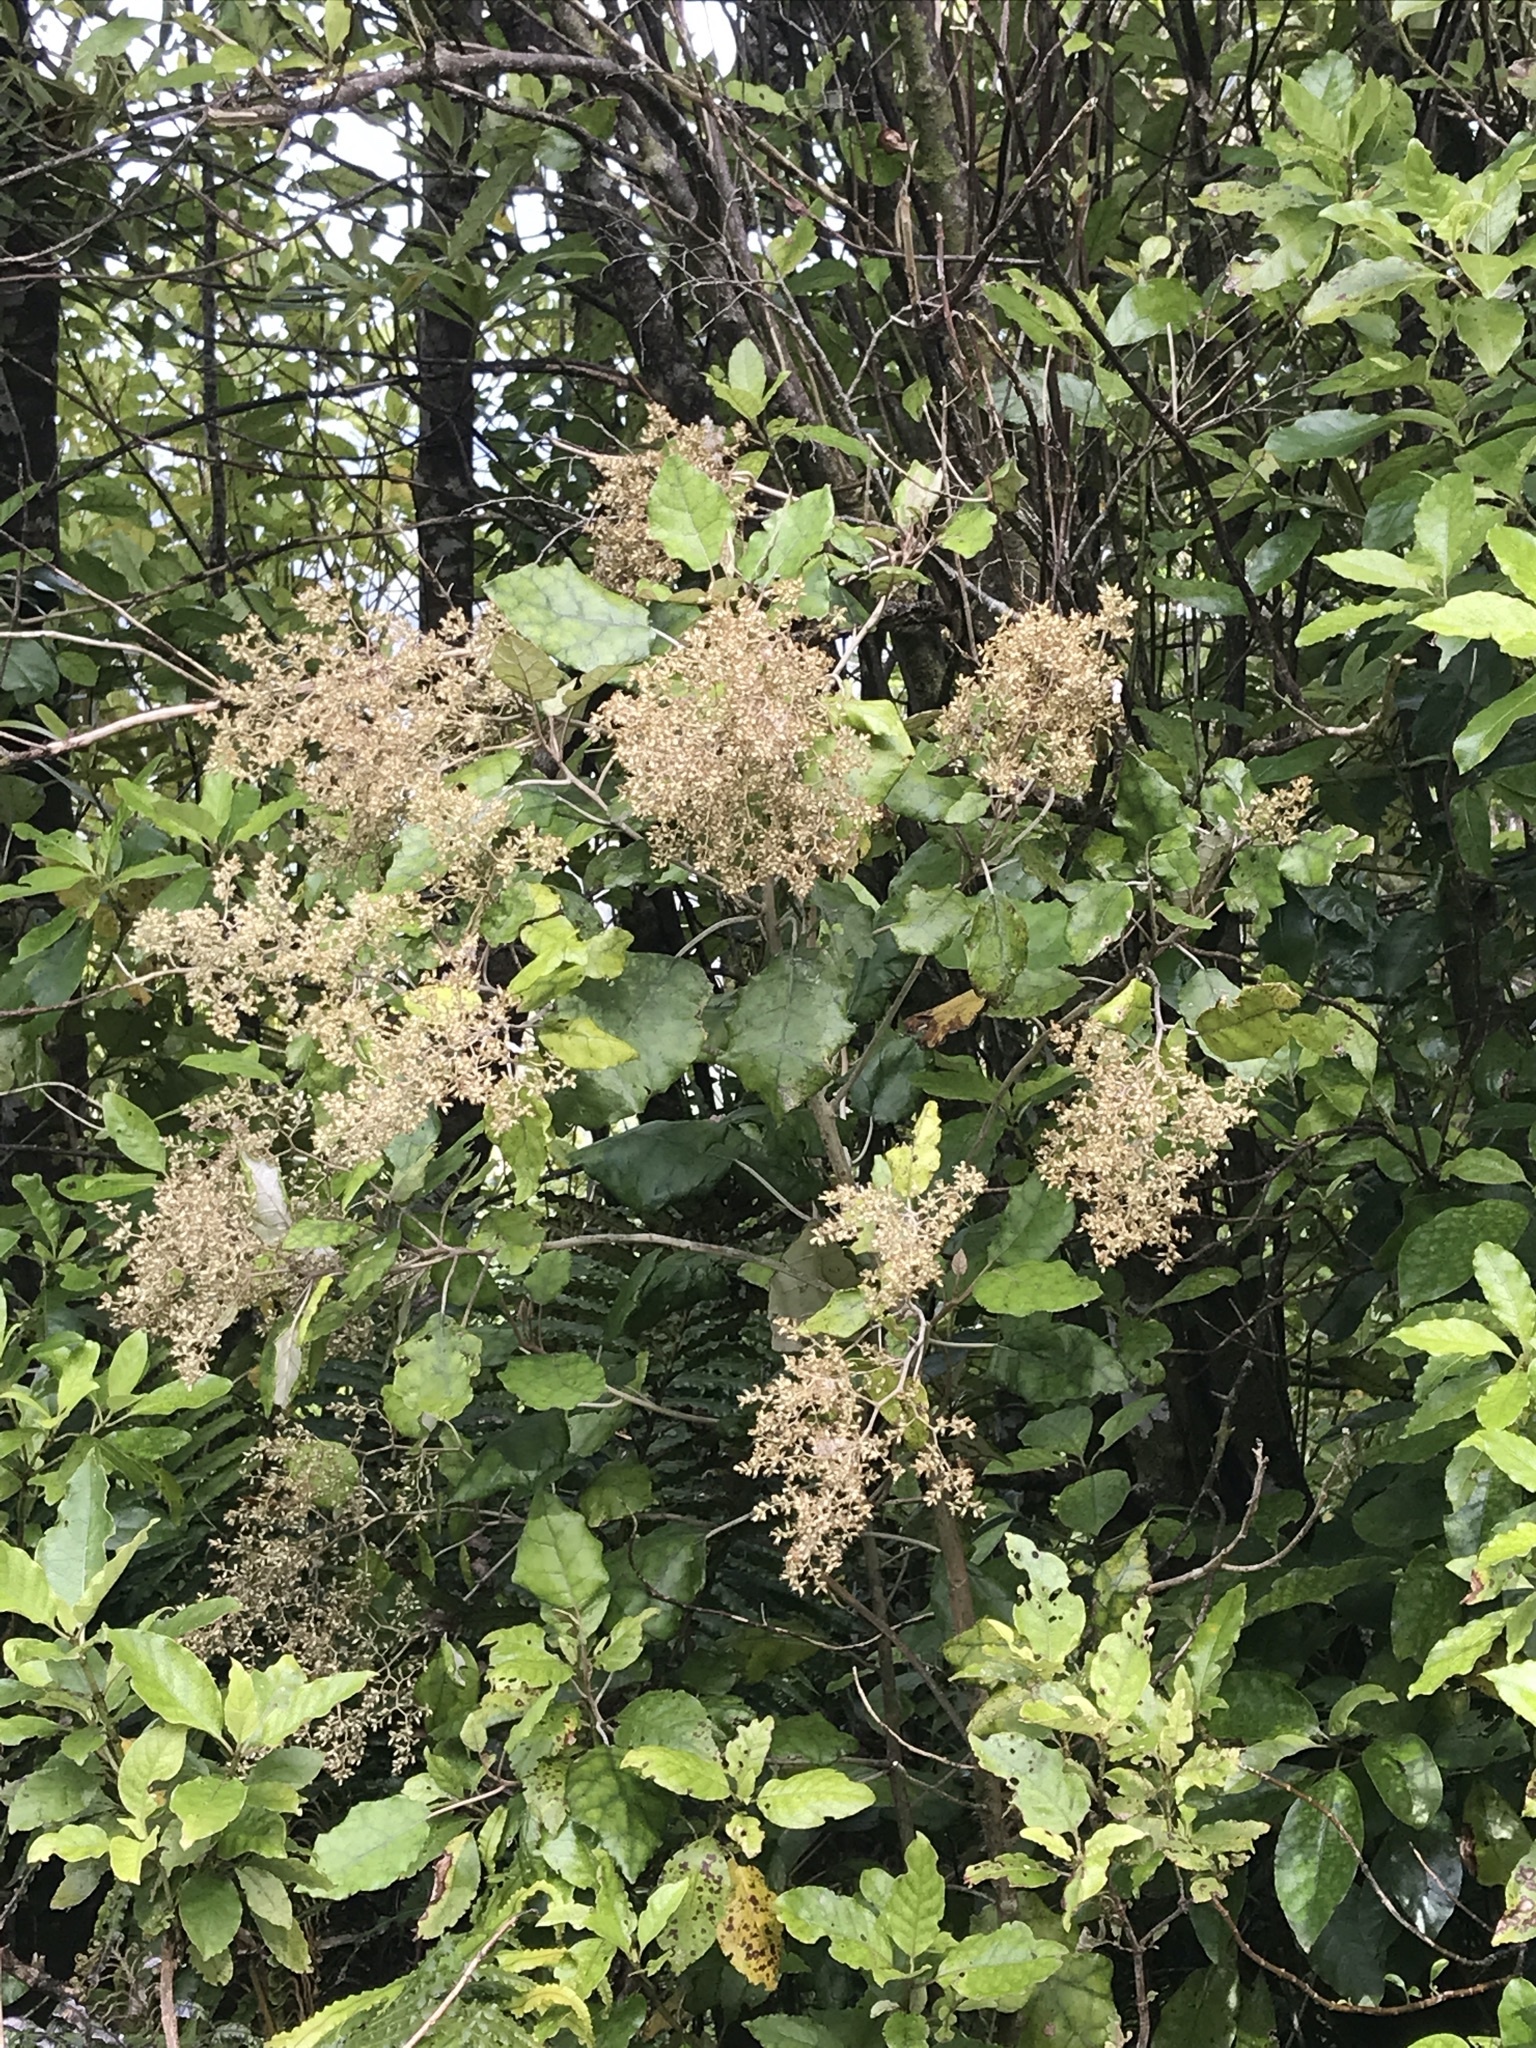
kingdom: Plantae
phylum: Tracheophyta
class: Magnoliopsida
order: Asterales
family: Asteraceae
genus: Brachyglottis
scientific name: Brachyglottis repanda
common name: Hedge ragwort
